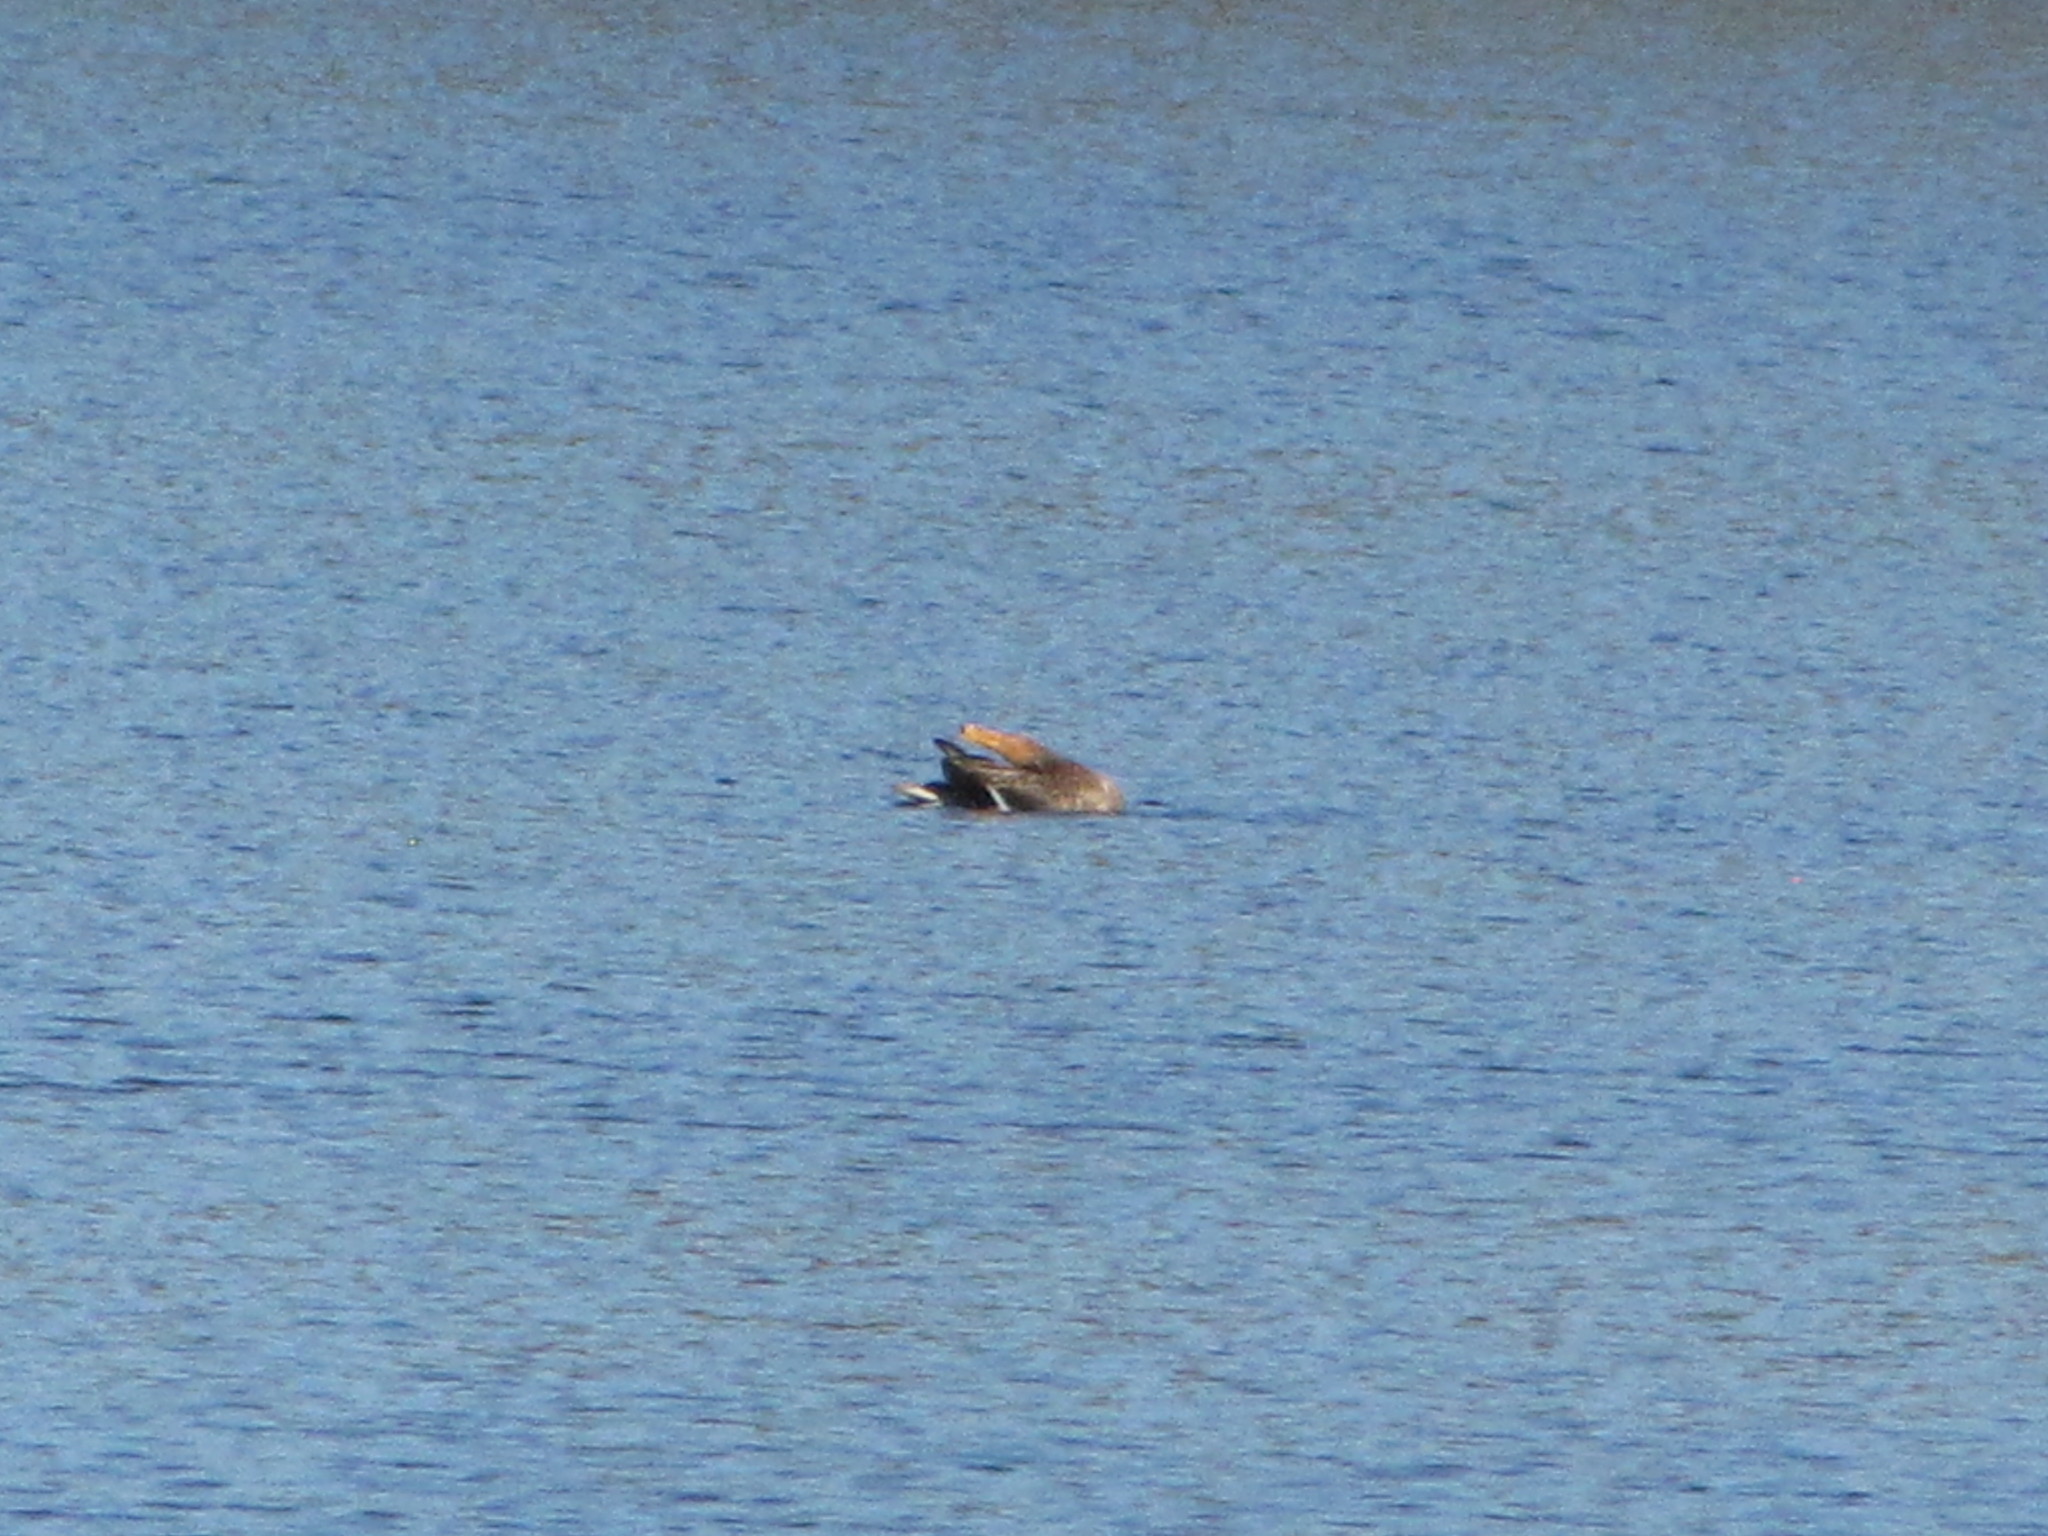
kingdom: Animalia
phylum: Chordata
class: Aves
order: Anseriformes
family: Anatidae
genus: Anas
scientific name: Anas platyrhynchos
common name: Mallard
